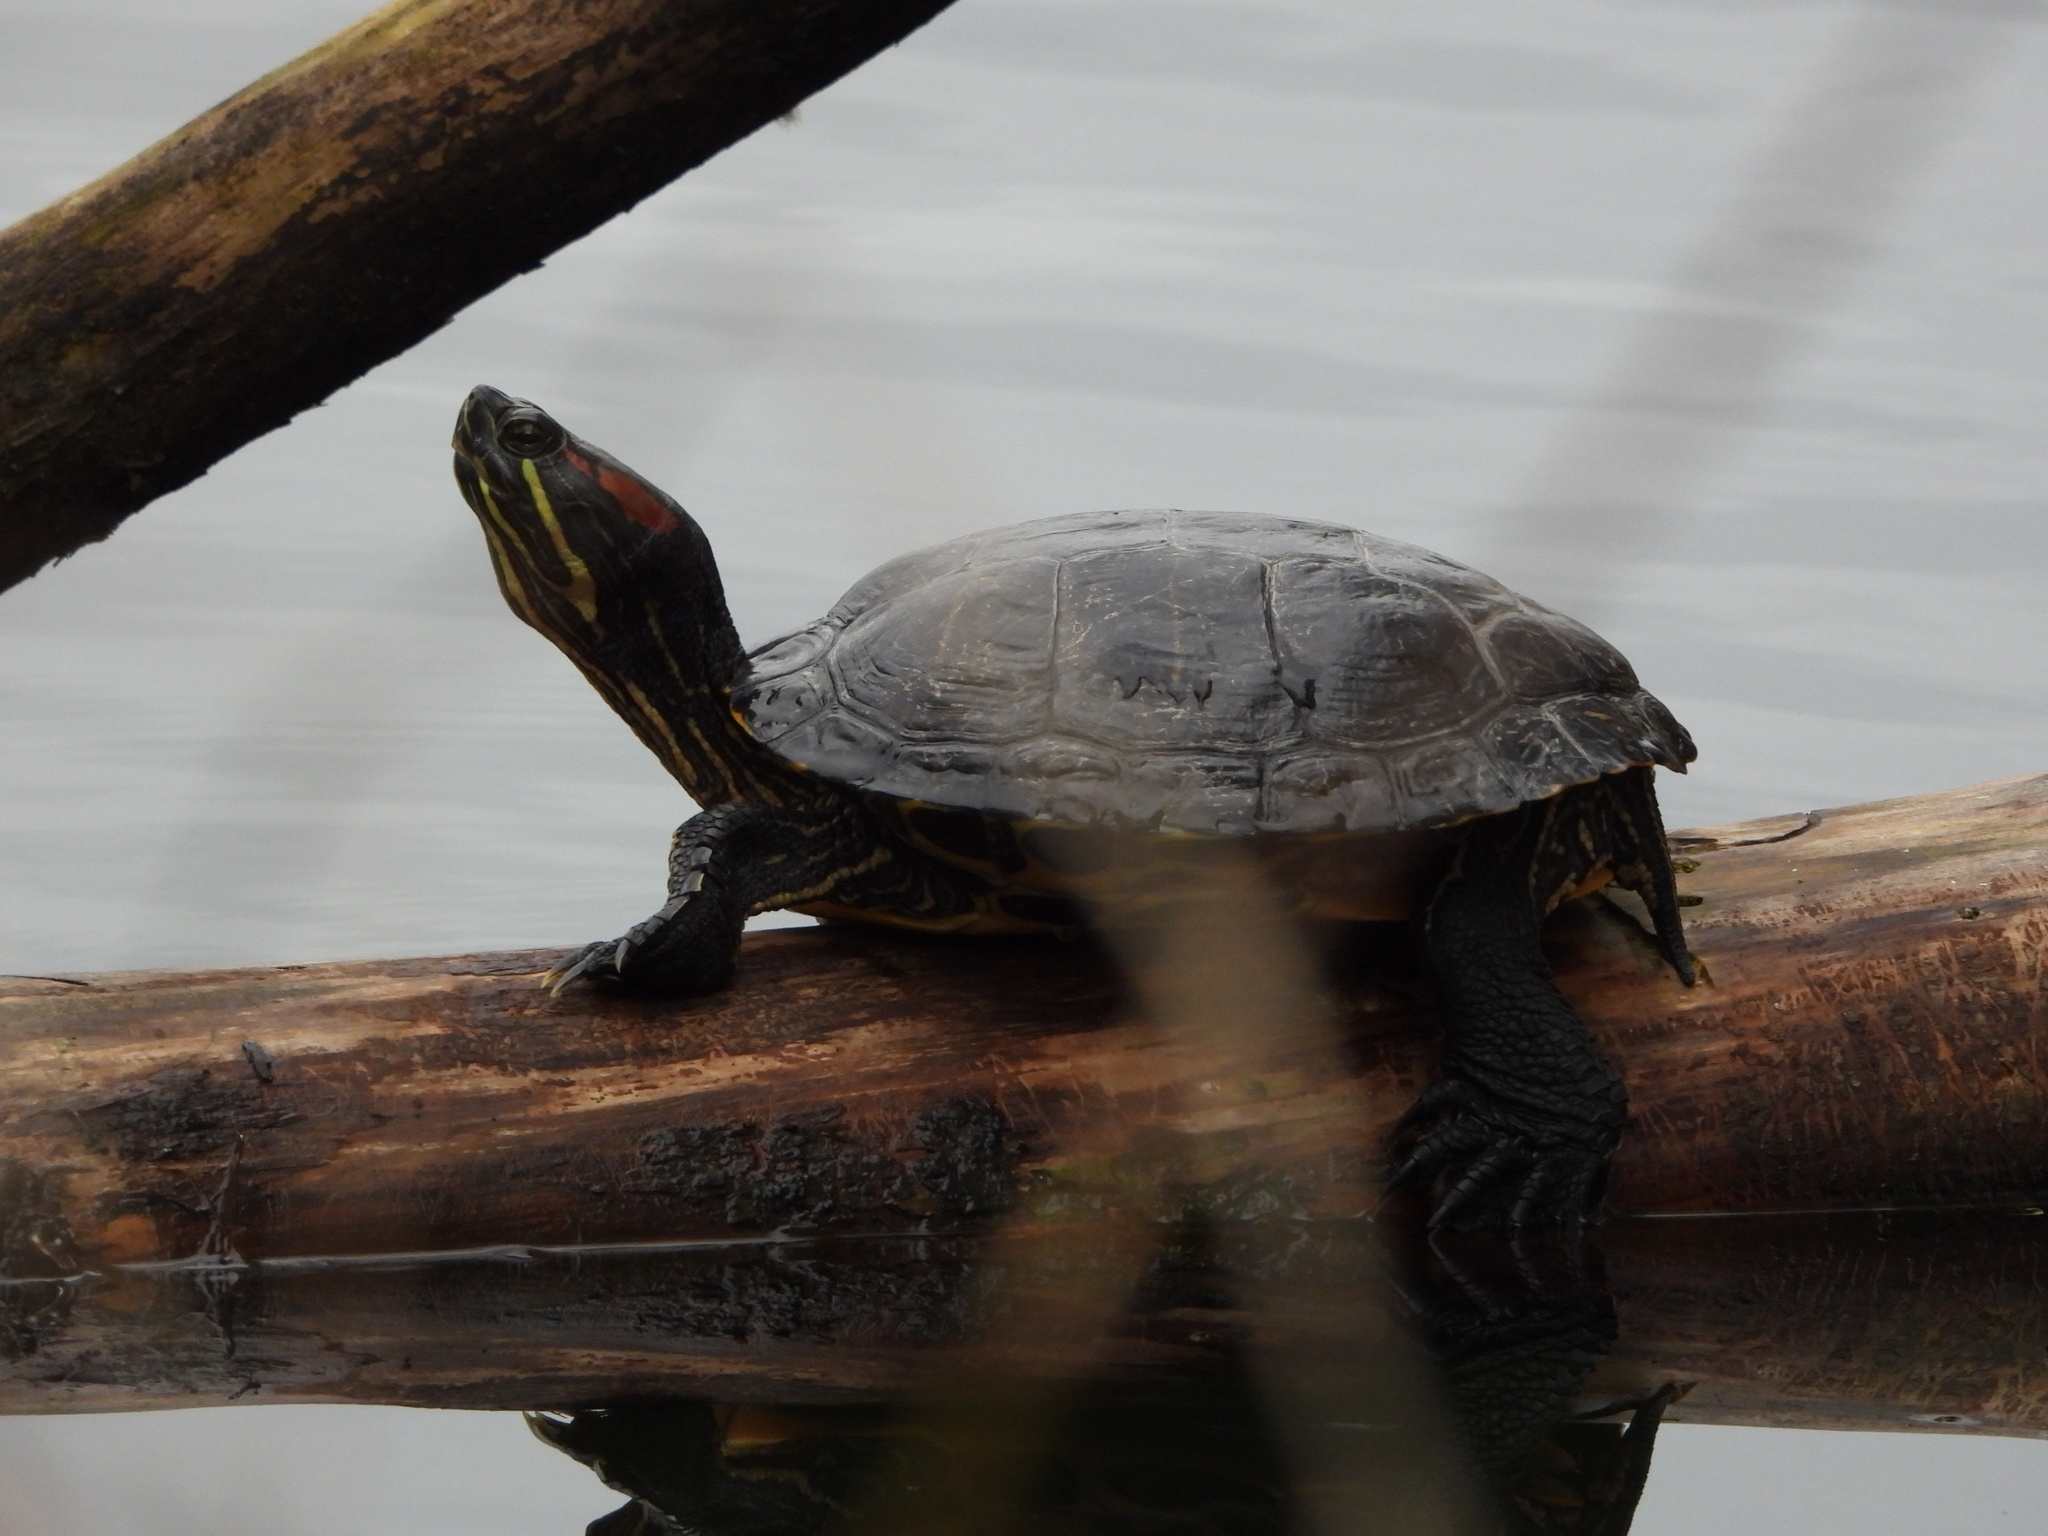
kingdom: Animalia
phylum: Chordata
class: Testudines
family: Emydidae
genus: Trachemys
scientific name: Trachemys scripta
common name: Slider
